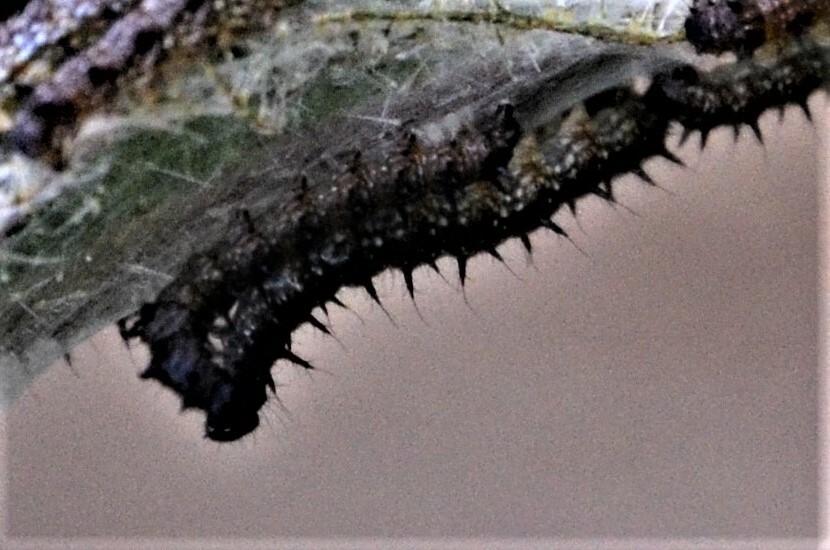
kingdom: Animalia
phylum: Arthropoda
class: Insecta
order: Lepidoptera
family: Nymphalidae
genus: Aglais
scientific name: Aglais io
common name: Peacock
